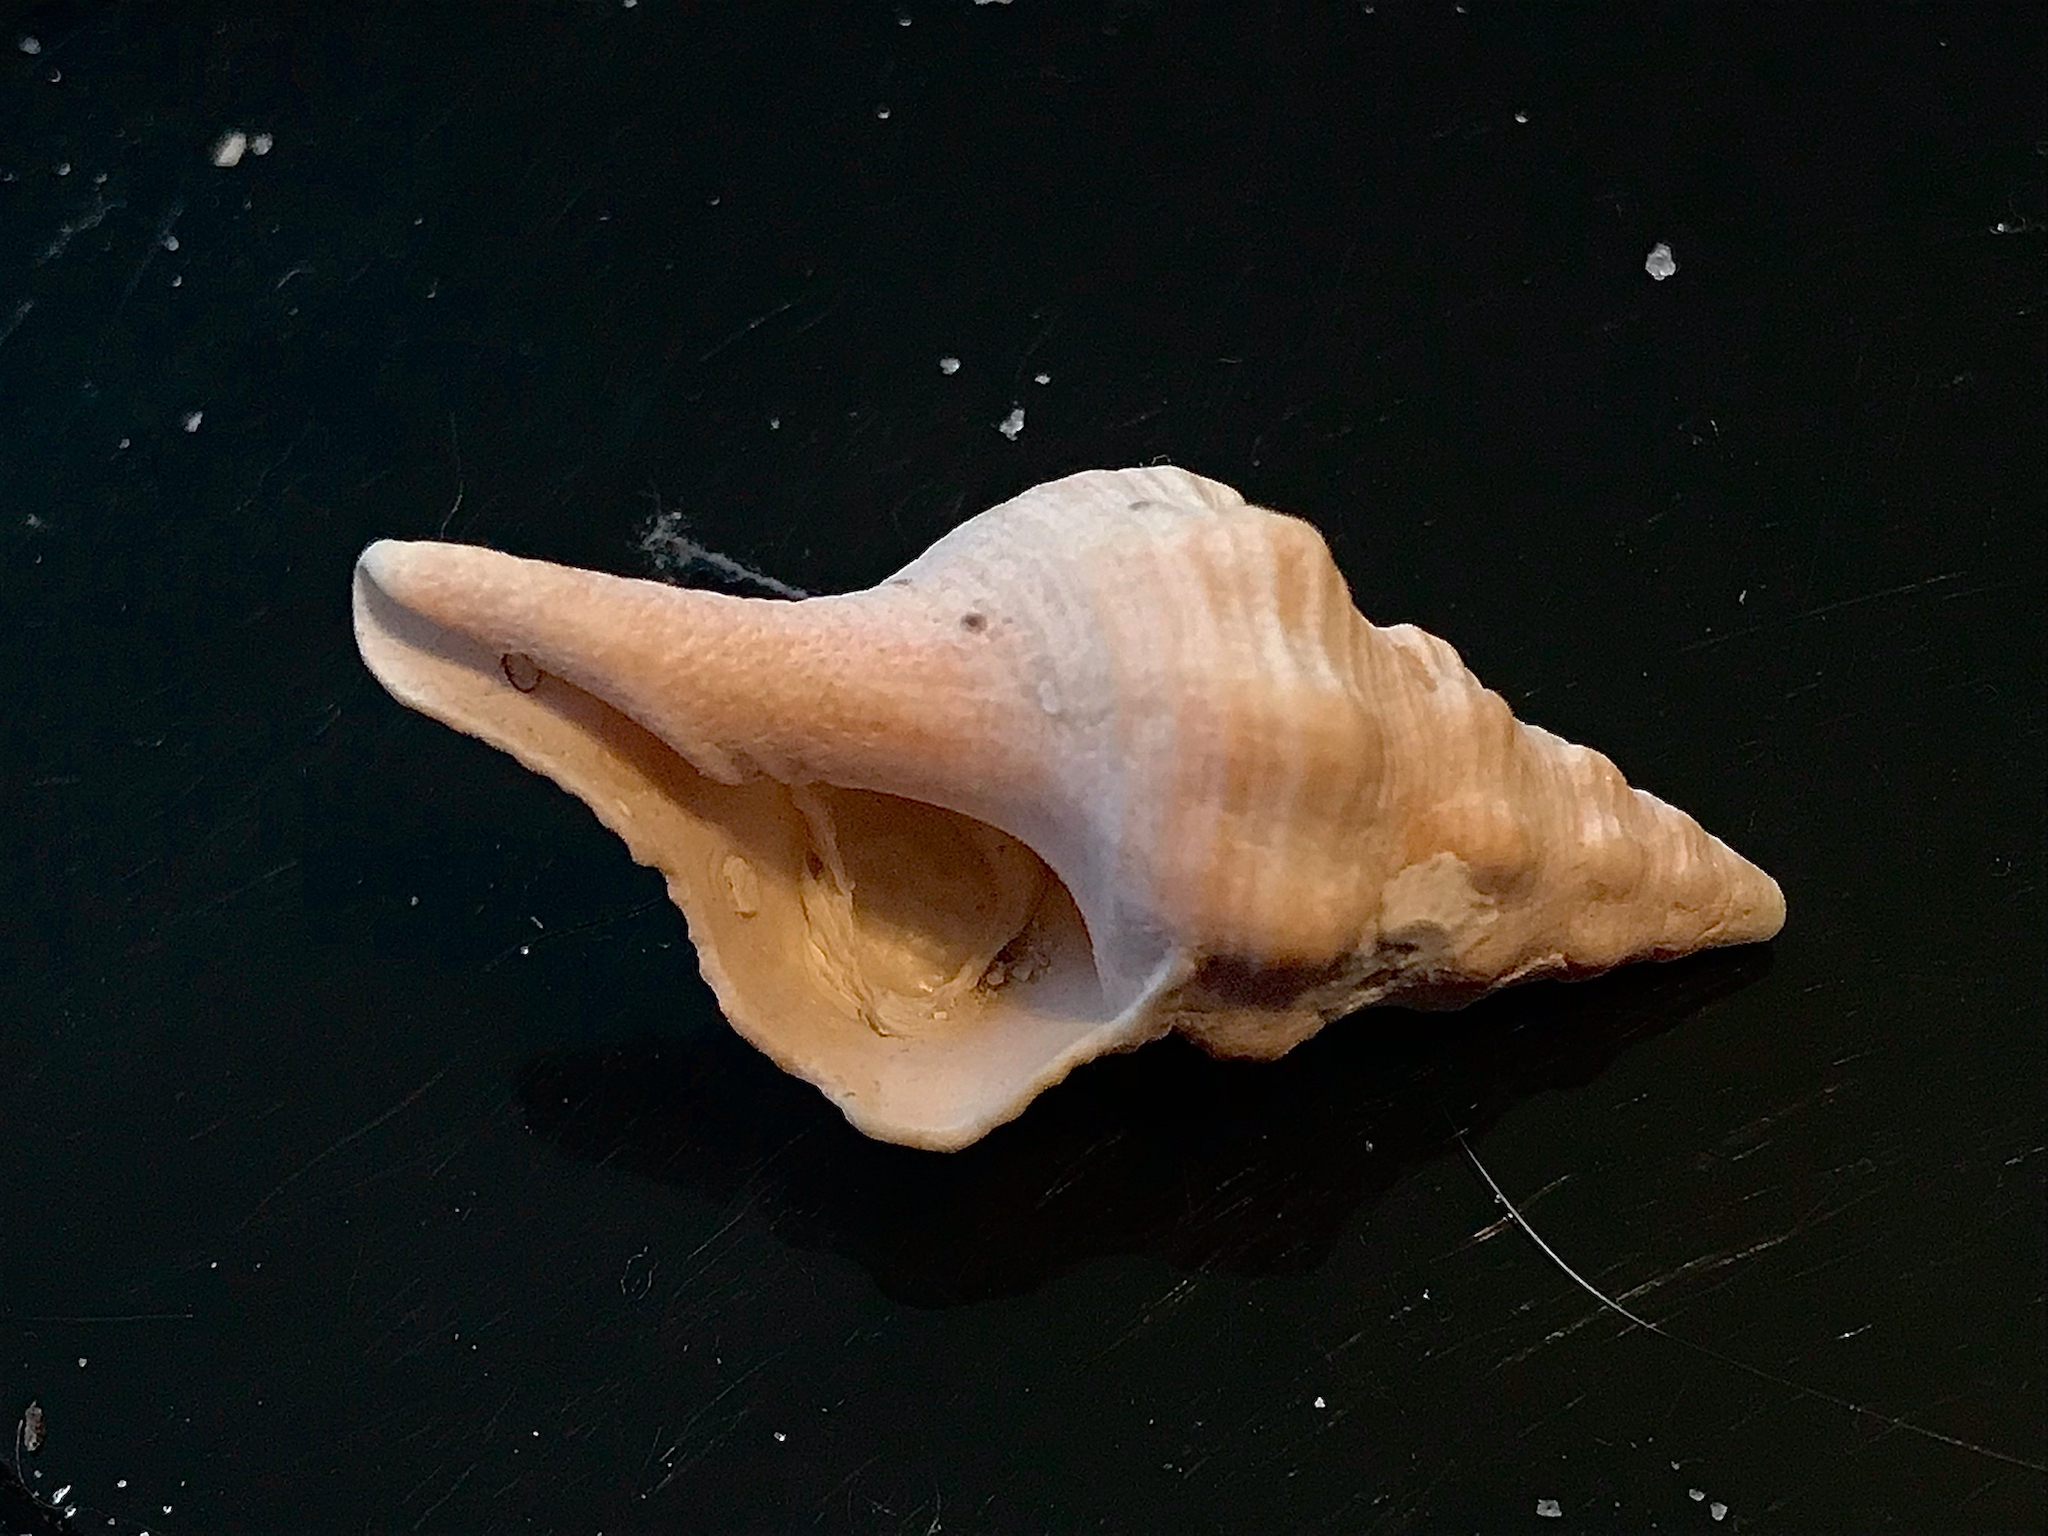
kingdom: Animalia
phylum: Mollusca
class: Gastropoda
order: Neogastropoda
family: Fasciolariidae
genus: Triplofusus
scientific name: Triplofusus giganteus
